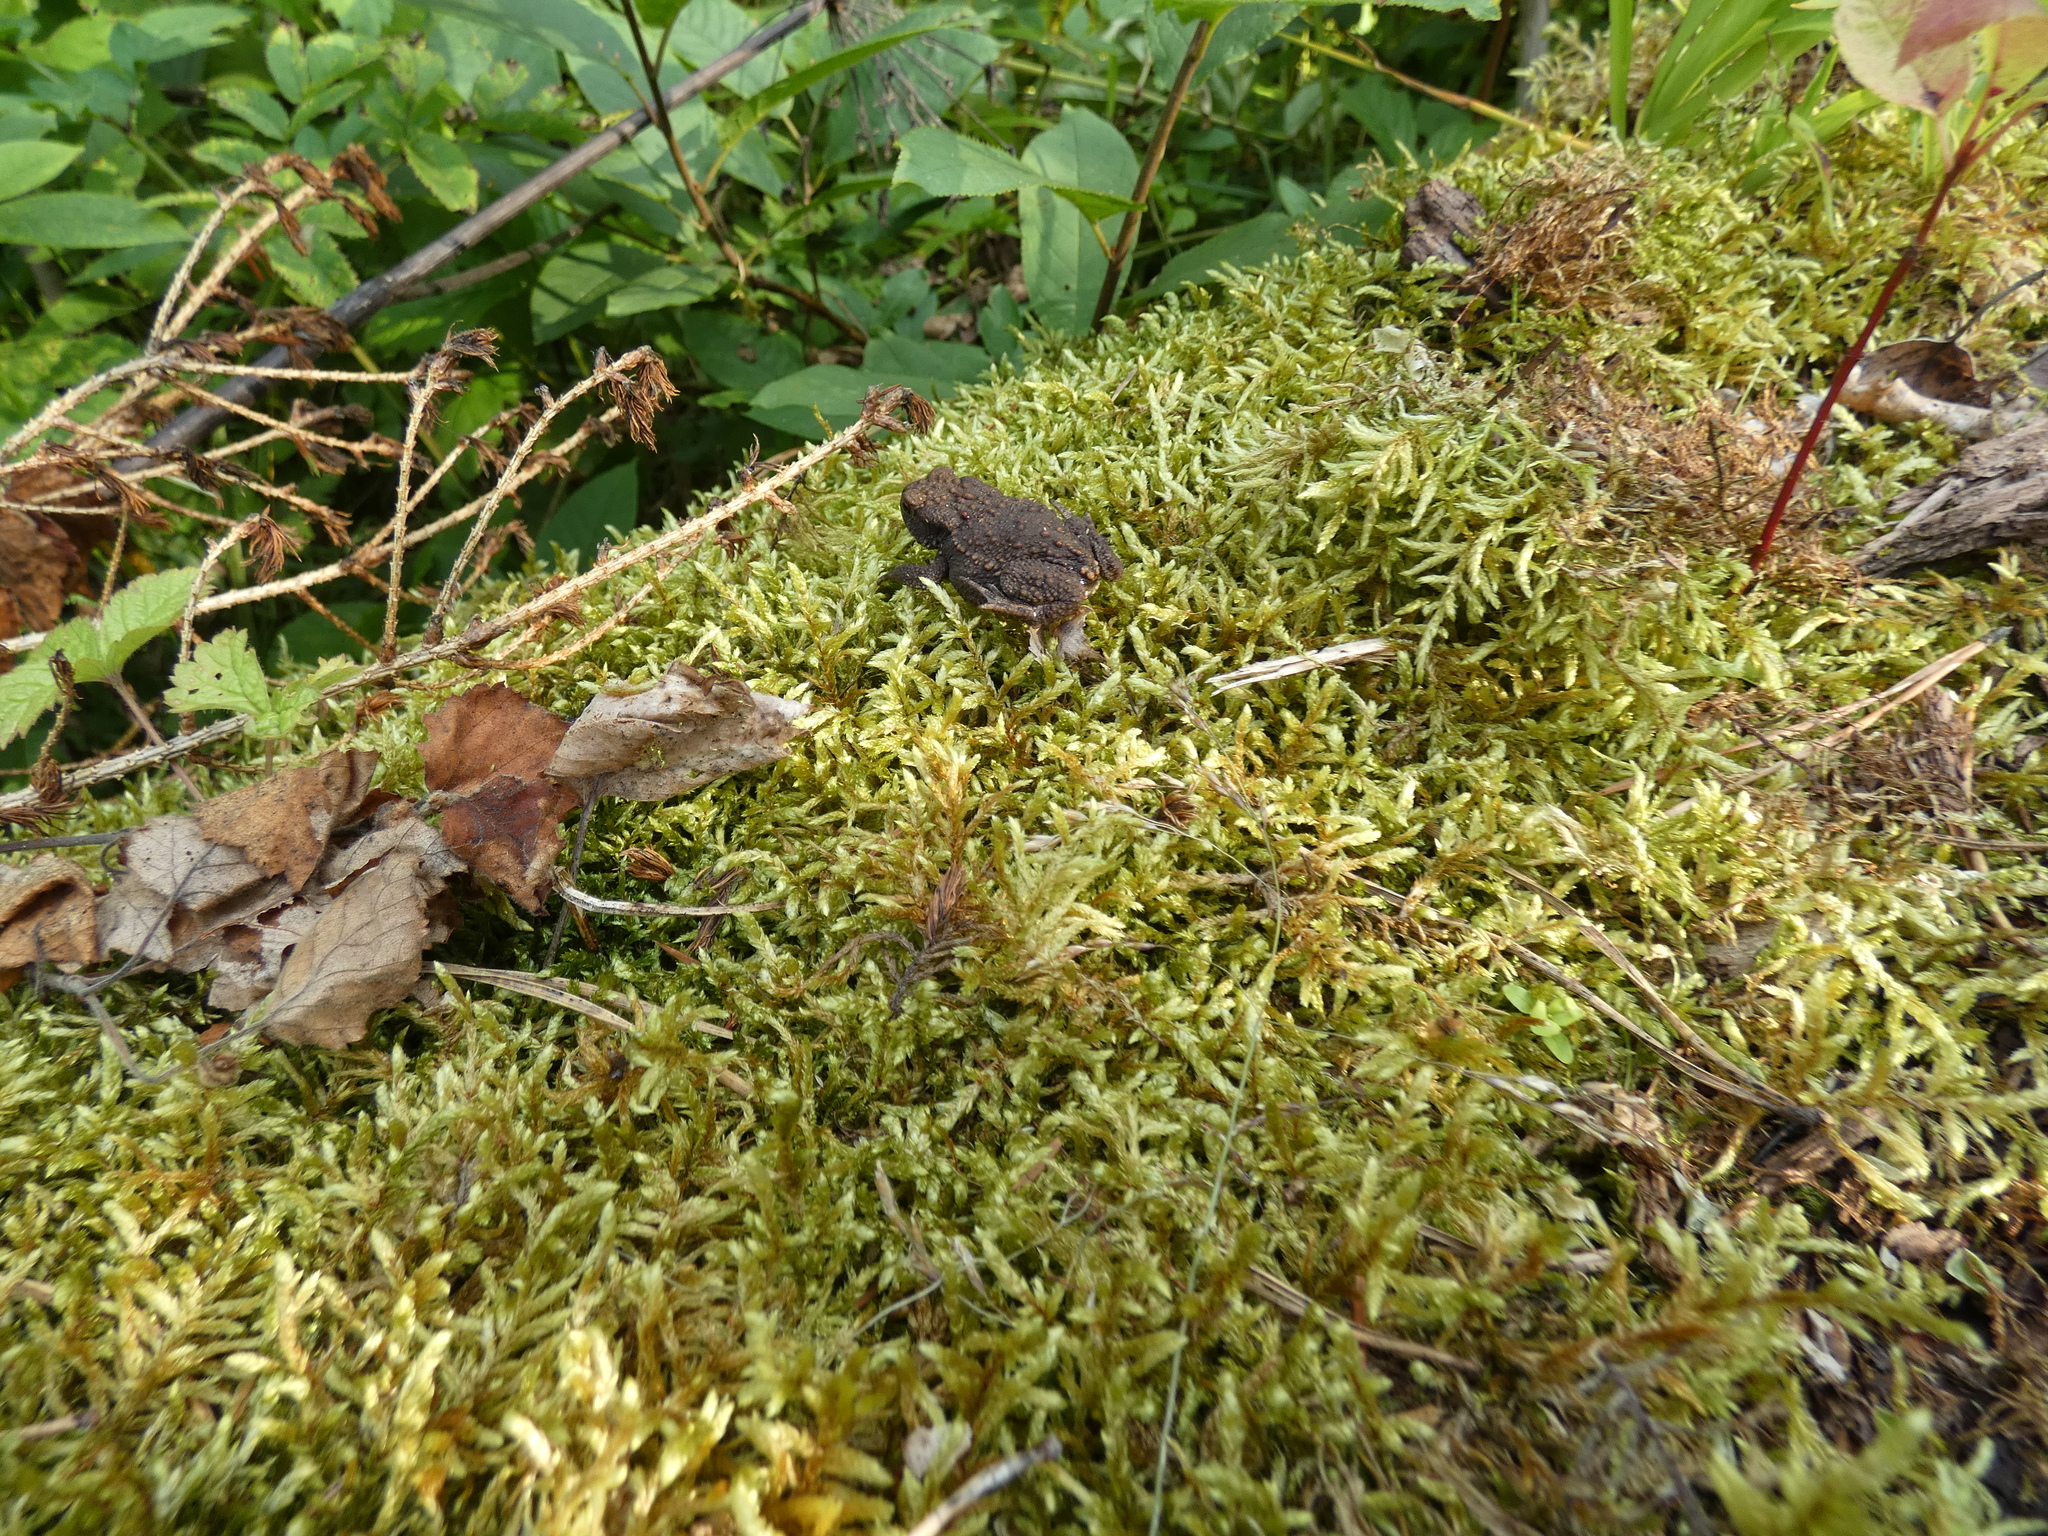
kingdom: Animalia
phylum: Chordata
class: Amphibia
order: Anura
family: Bufonidae
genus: Bufo
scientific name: Bufo bufo
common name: Common toad
